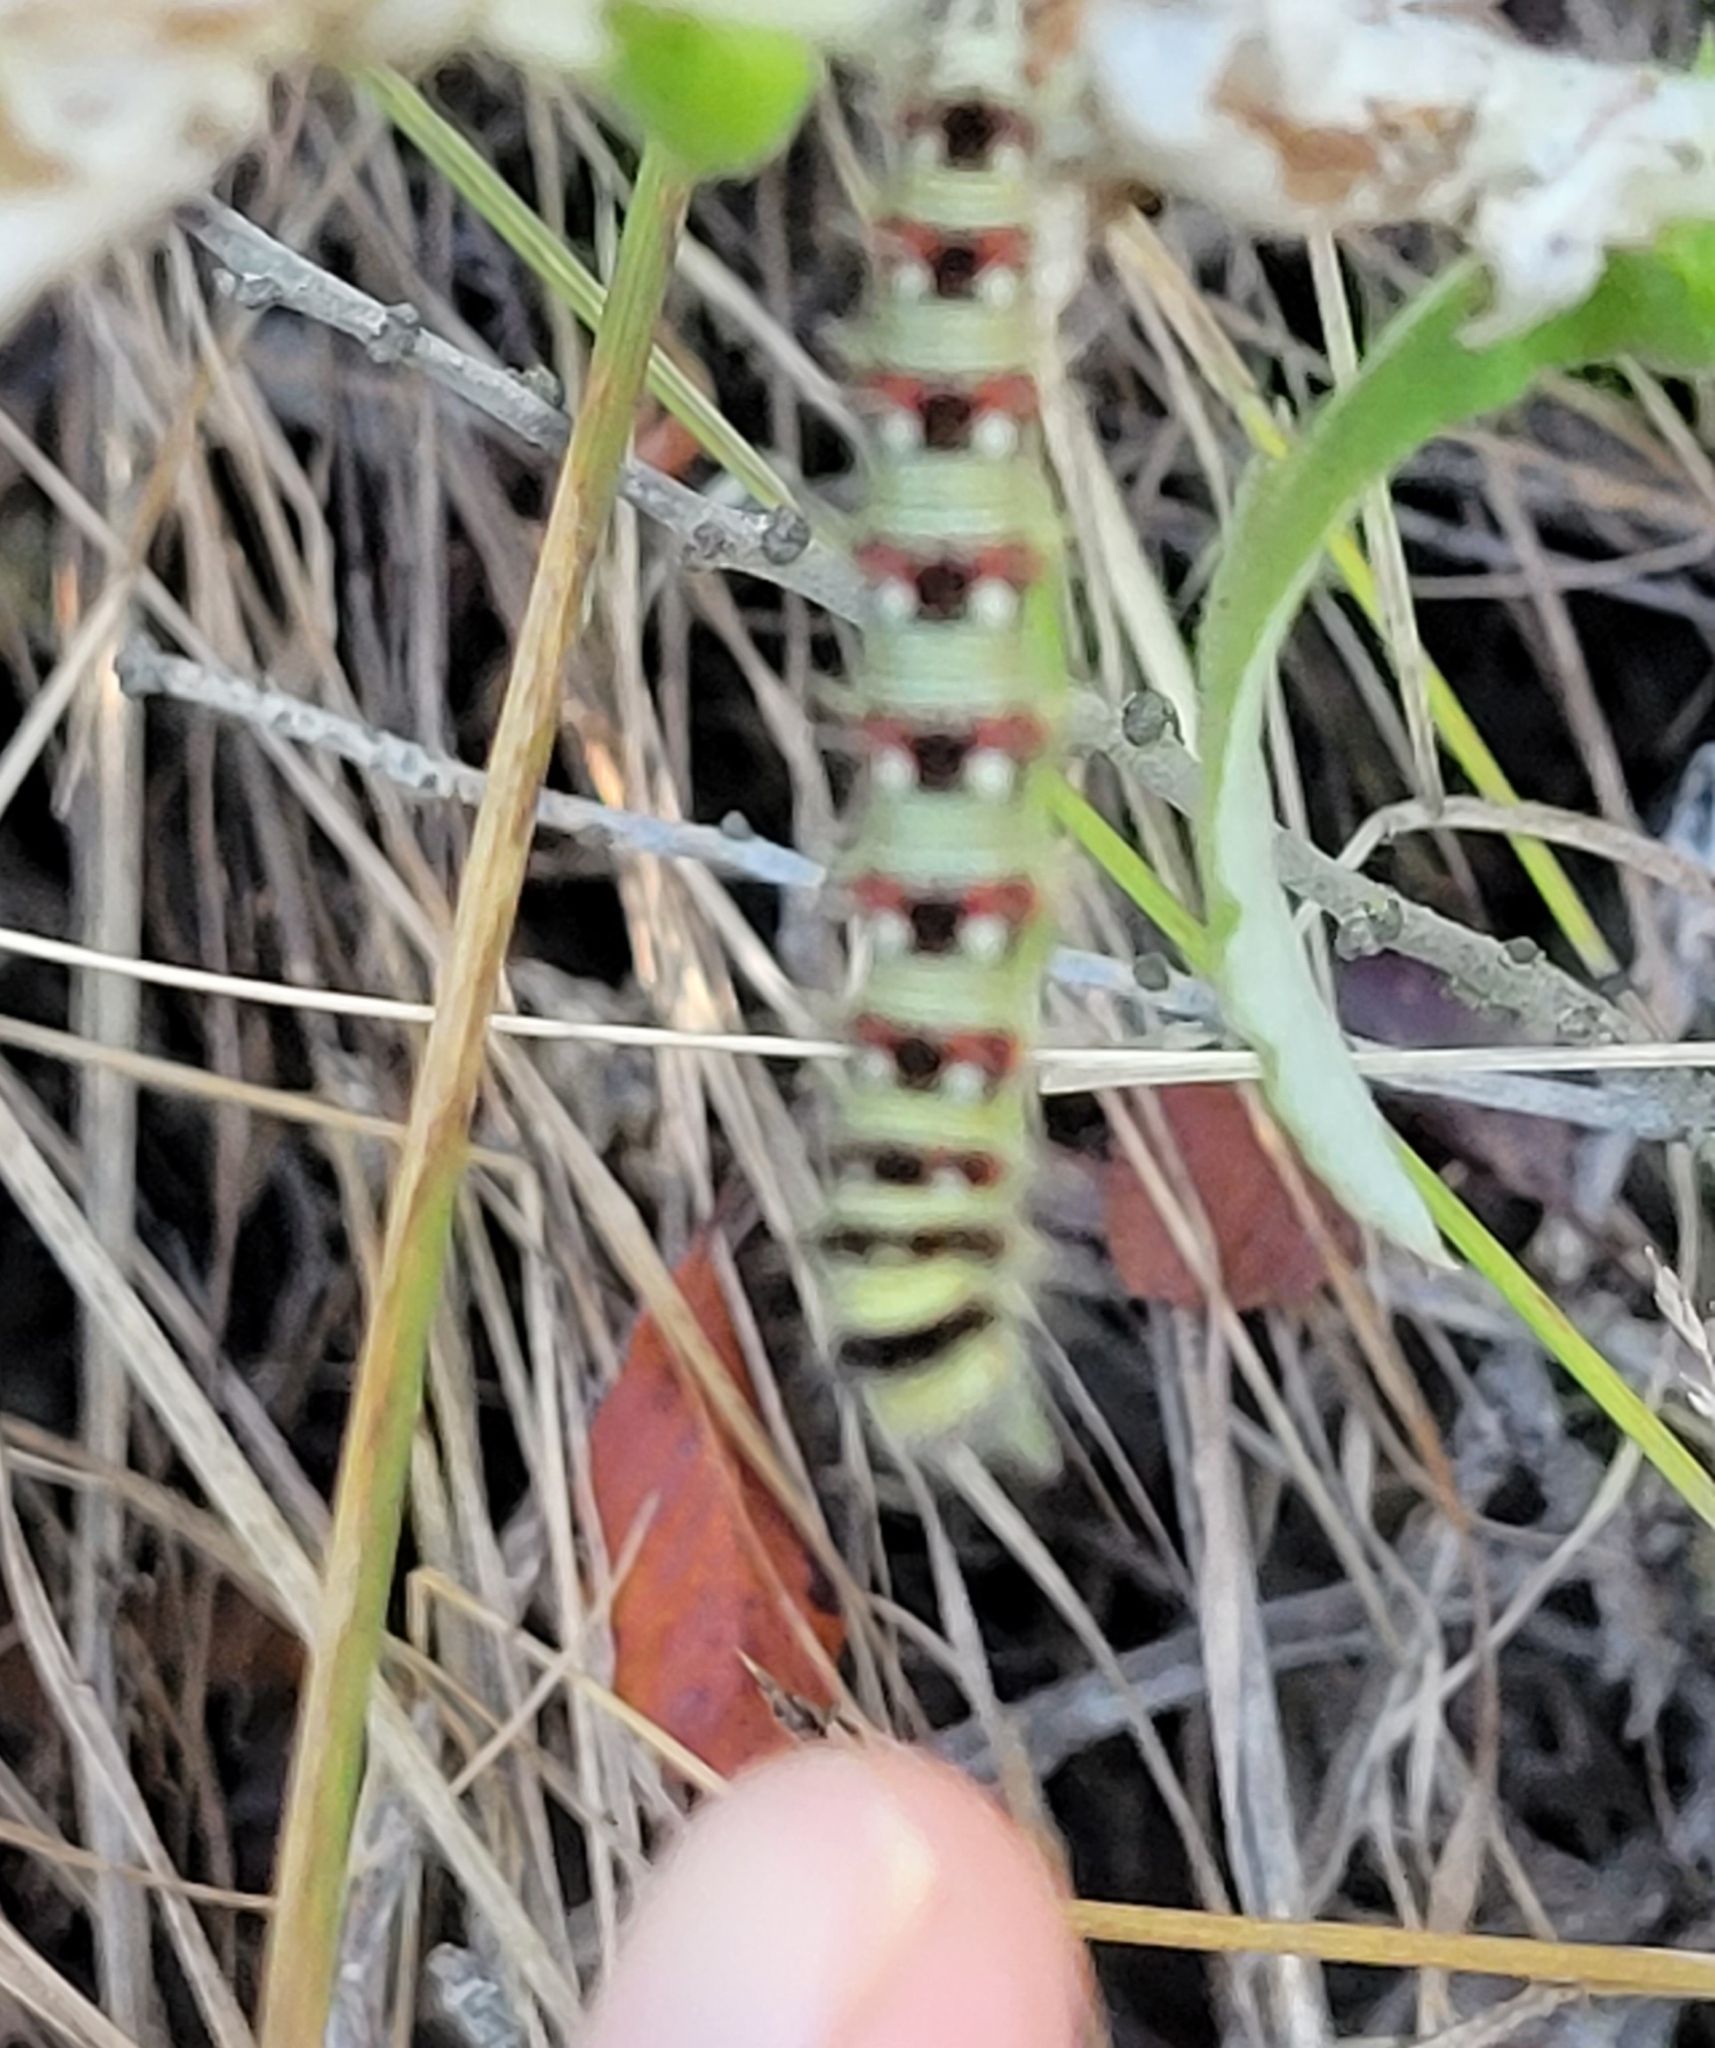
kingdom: Animalia
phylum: Arthropoda
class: Insecta
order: Lepidoptera
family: Nymphalidae
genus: Vanessa
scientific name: Vanessa virginiensis
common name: American lady
